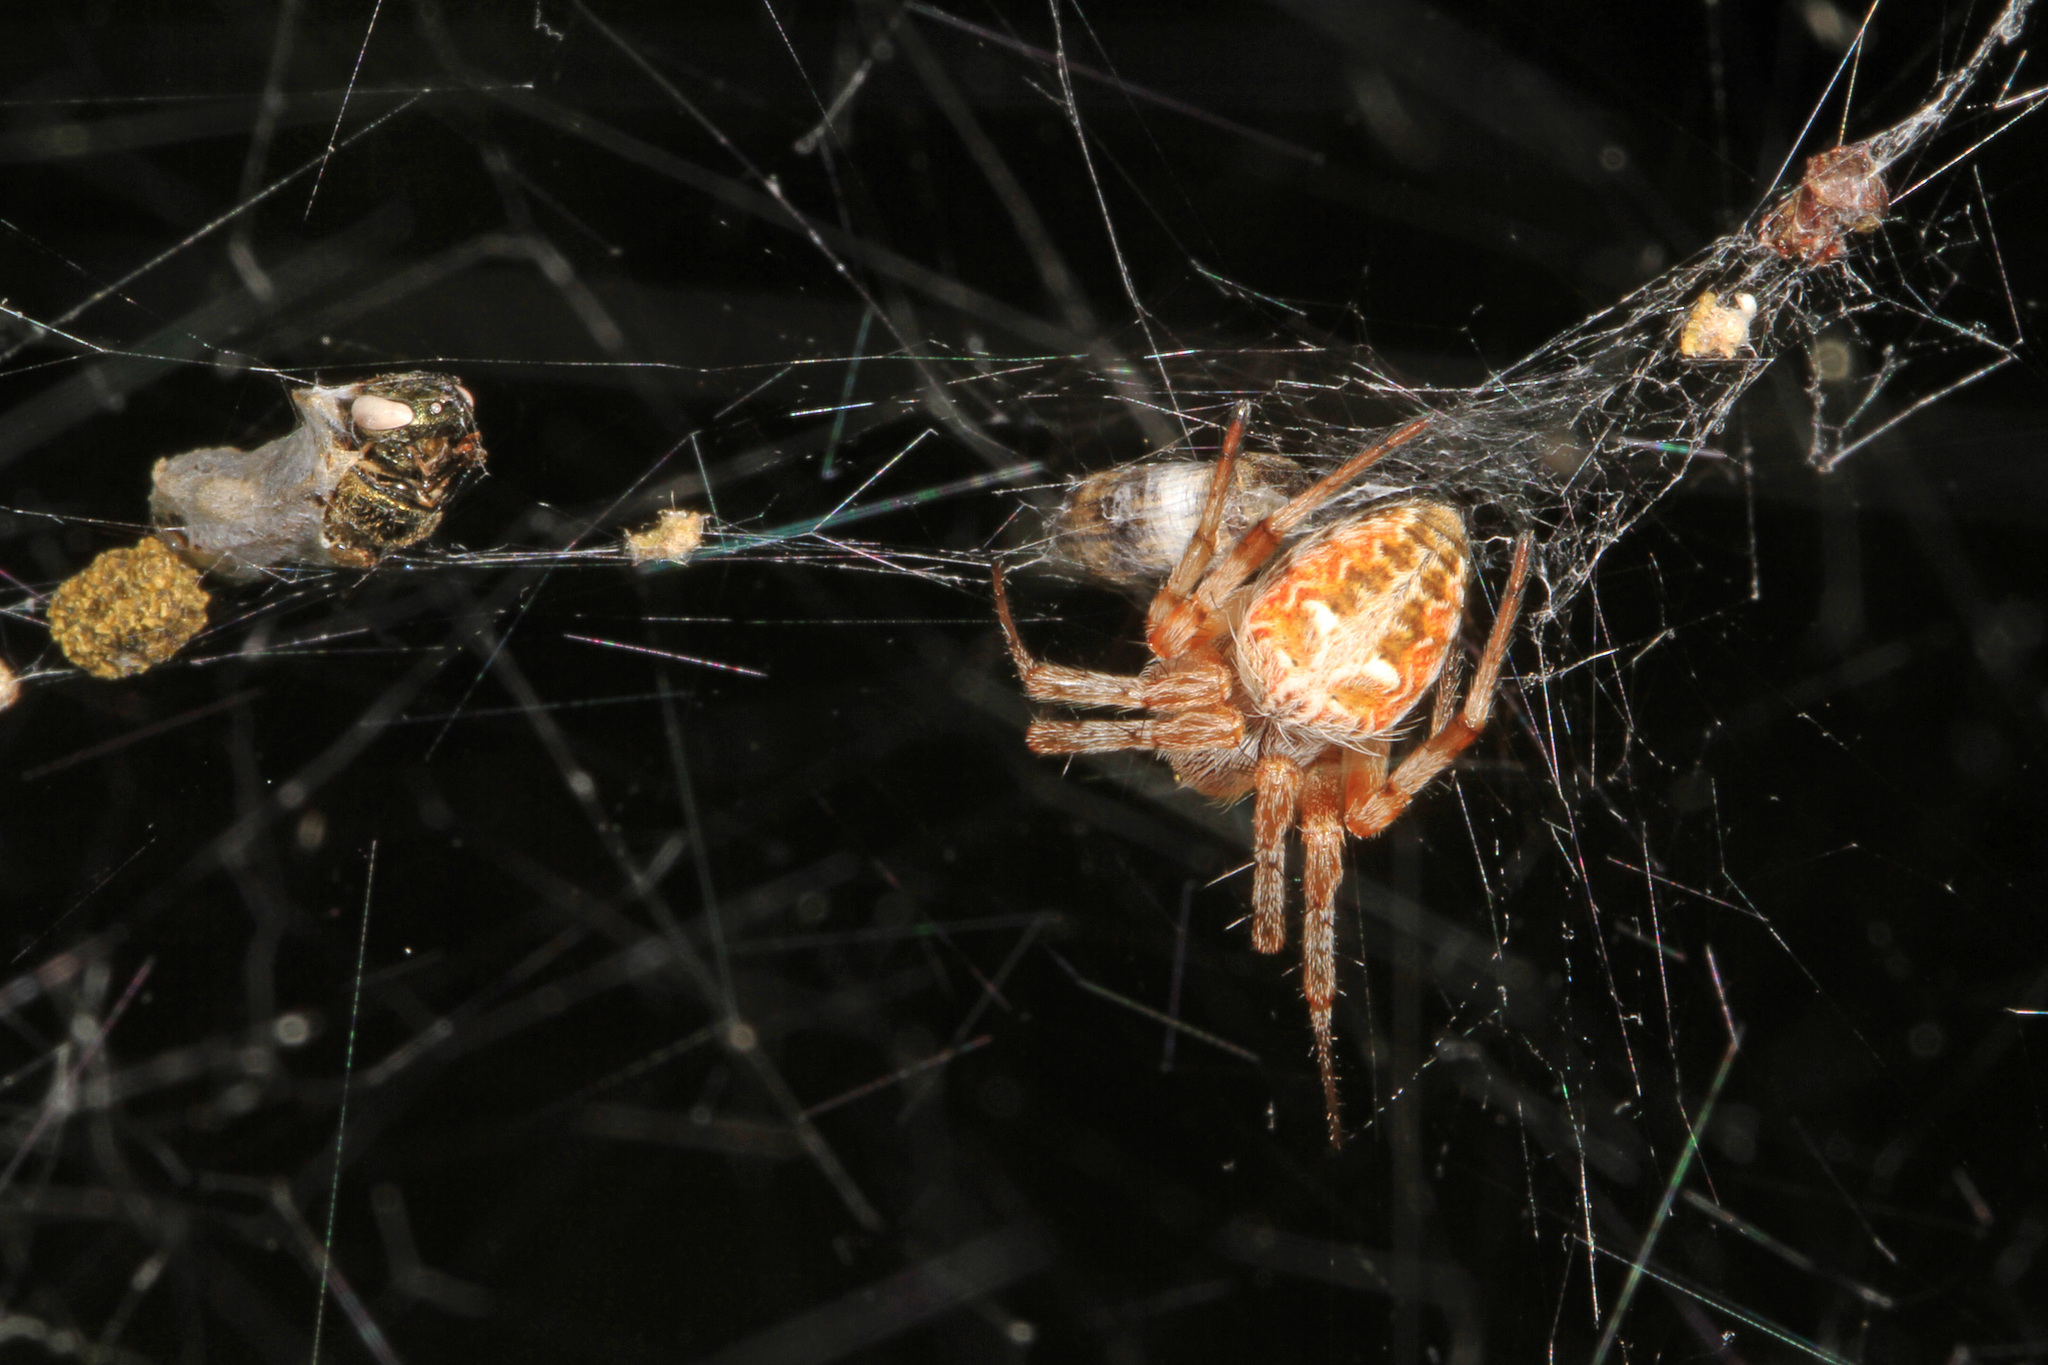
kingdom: Animalia
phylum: Arthropoda
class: Arachnida
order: Araneae
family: Araneidae
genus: Metepeira
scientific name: Metepeira labyrinthea
